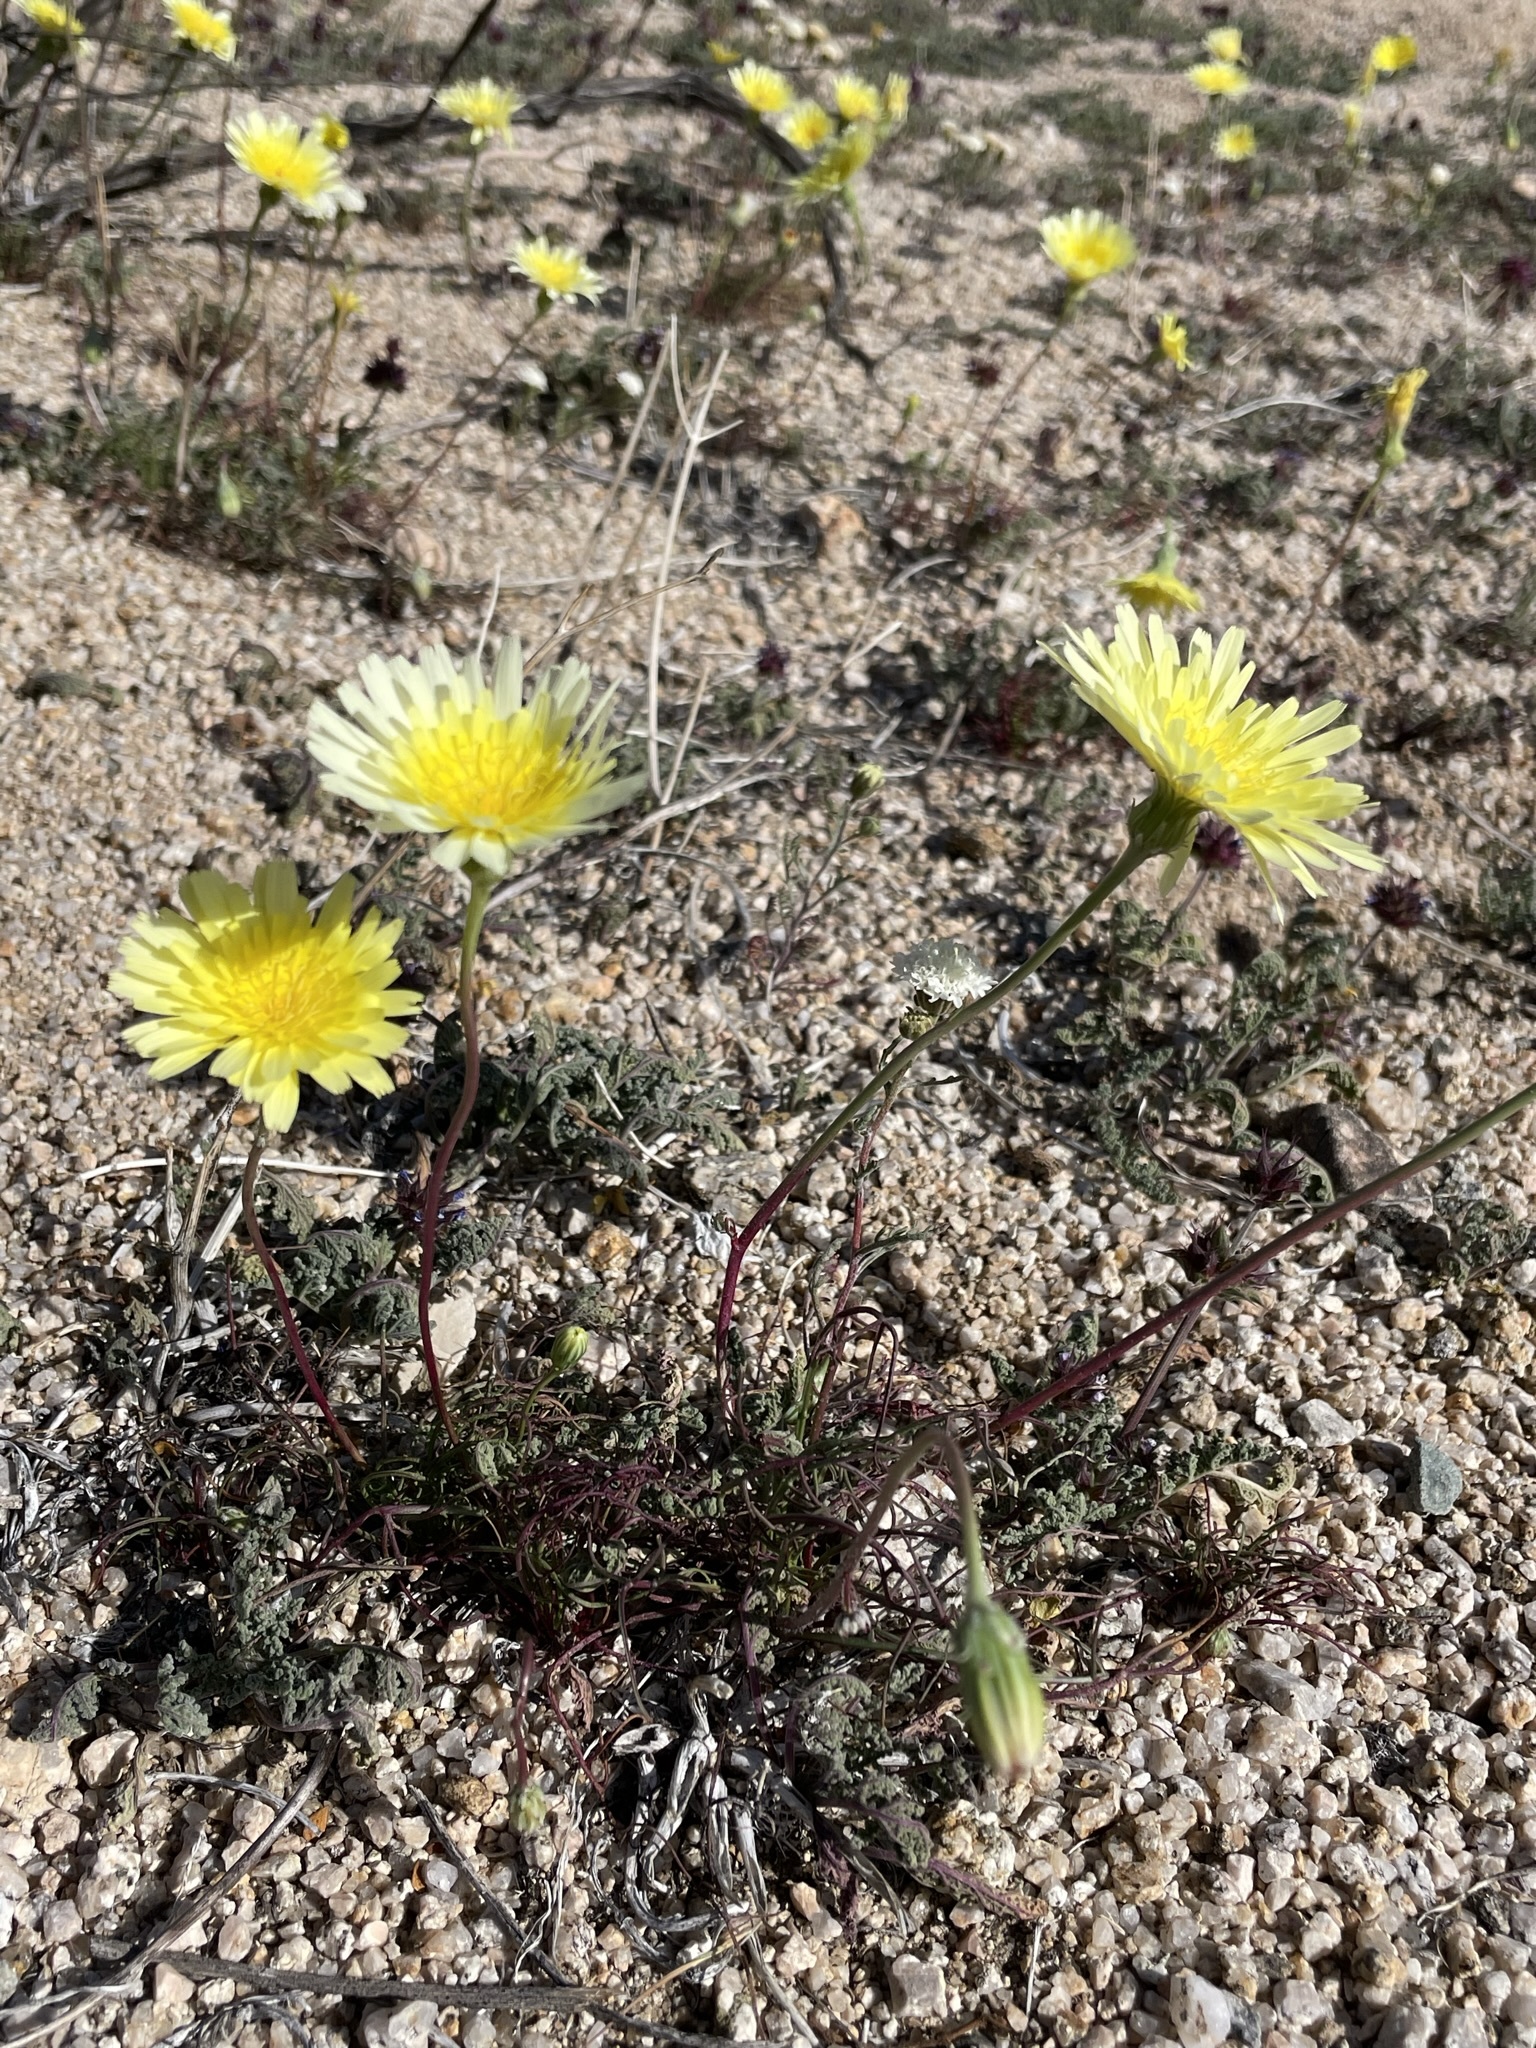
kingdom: Plantae
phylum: Tracheophyta
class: Magnoliopsida
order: Asterales
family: Asteraceae
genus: Malacothrix
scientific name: Malacothrix glabrata
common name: Smooth desert-dandelion
